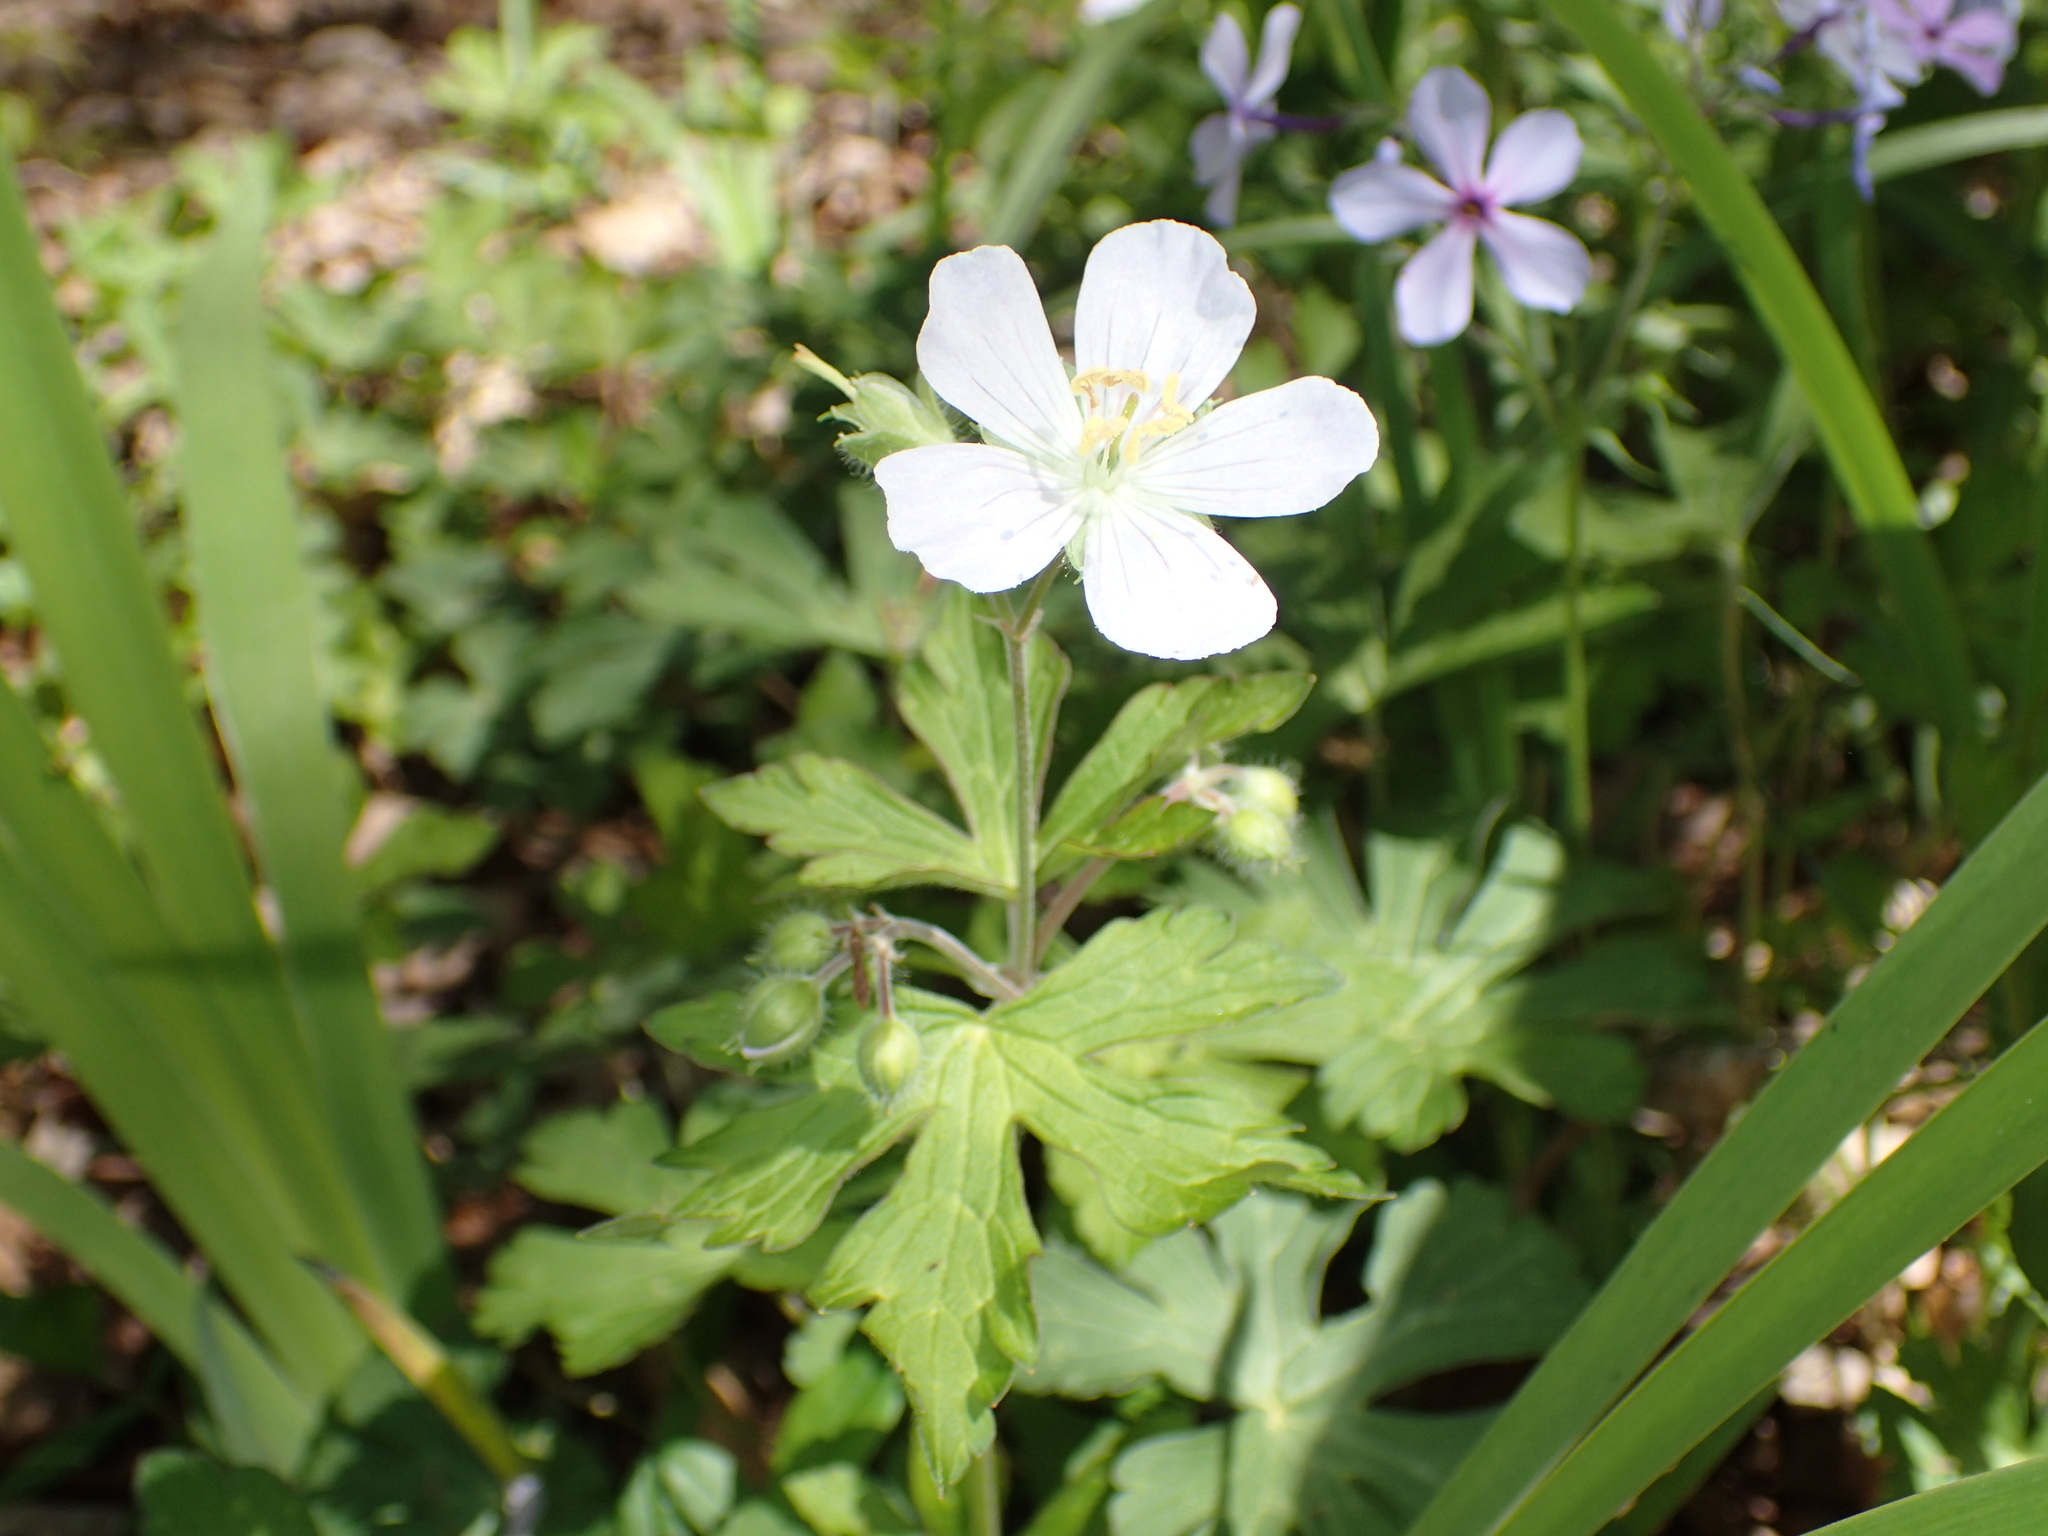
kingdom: Plantae
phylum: Tracheophyta
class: Magnoliopsida
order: Geraniales
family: Geraniaceae
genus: Geranium
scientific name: Geranium maculatum
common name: Spotted geranium
